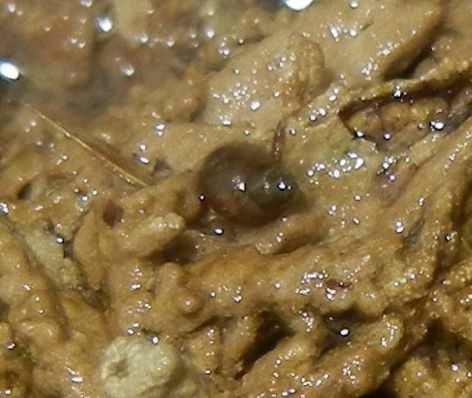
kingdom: Animalia
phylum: Mollusca
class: Gastropoda
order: Littorinimorpha
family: Bithyniidae
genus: Bithynia
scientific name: Bithynia tentaculata
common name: Common bithynia
